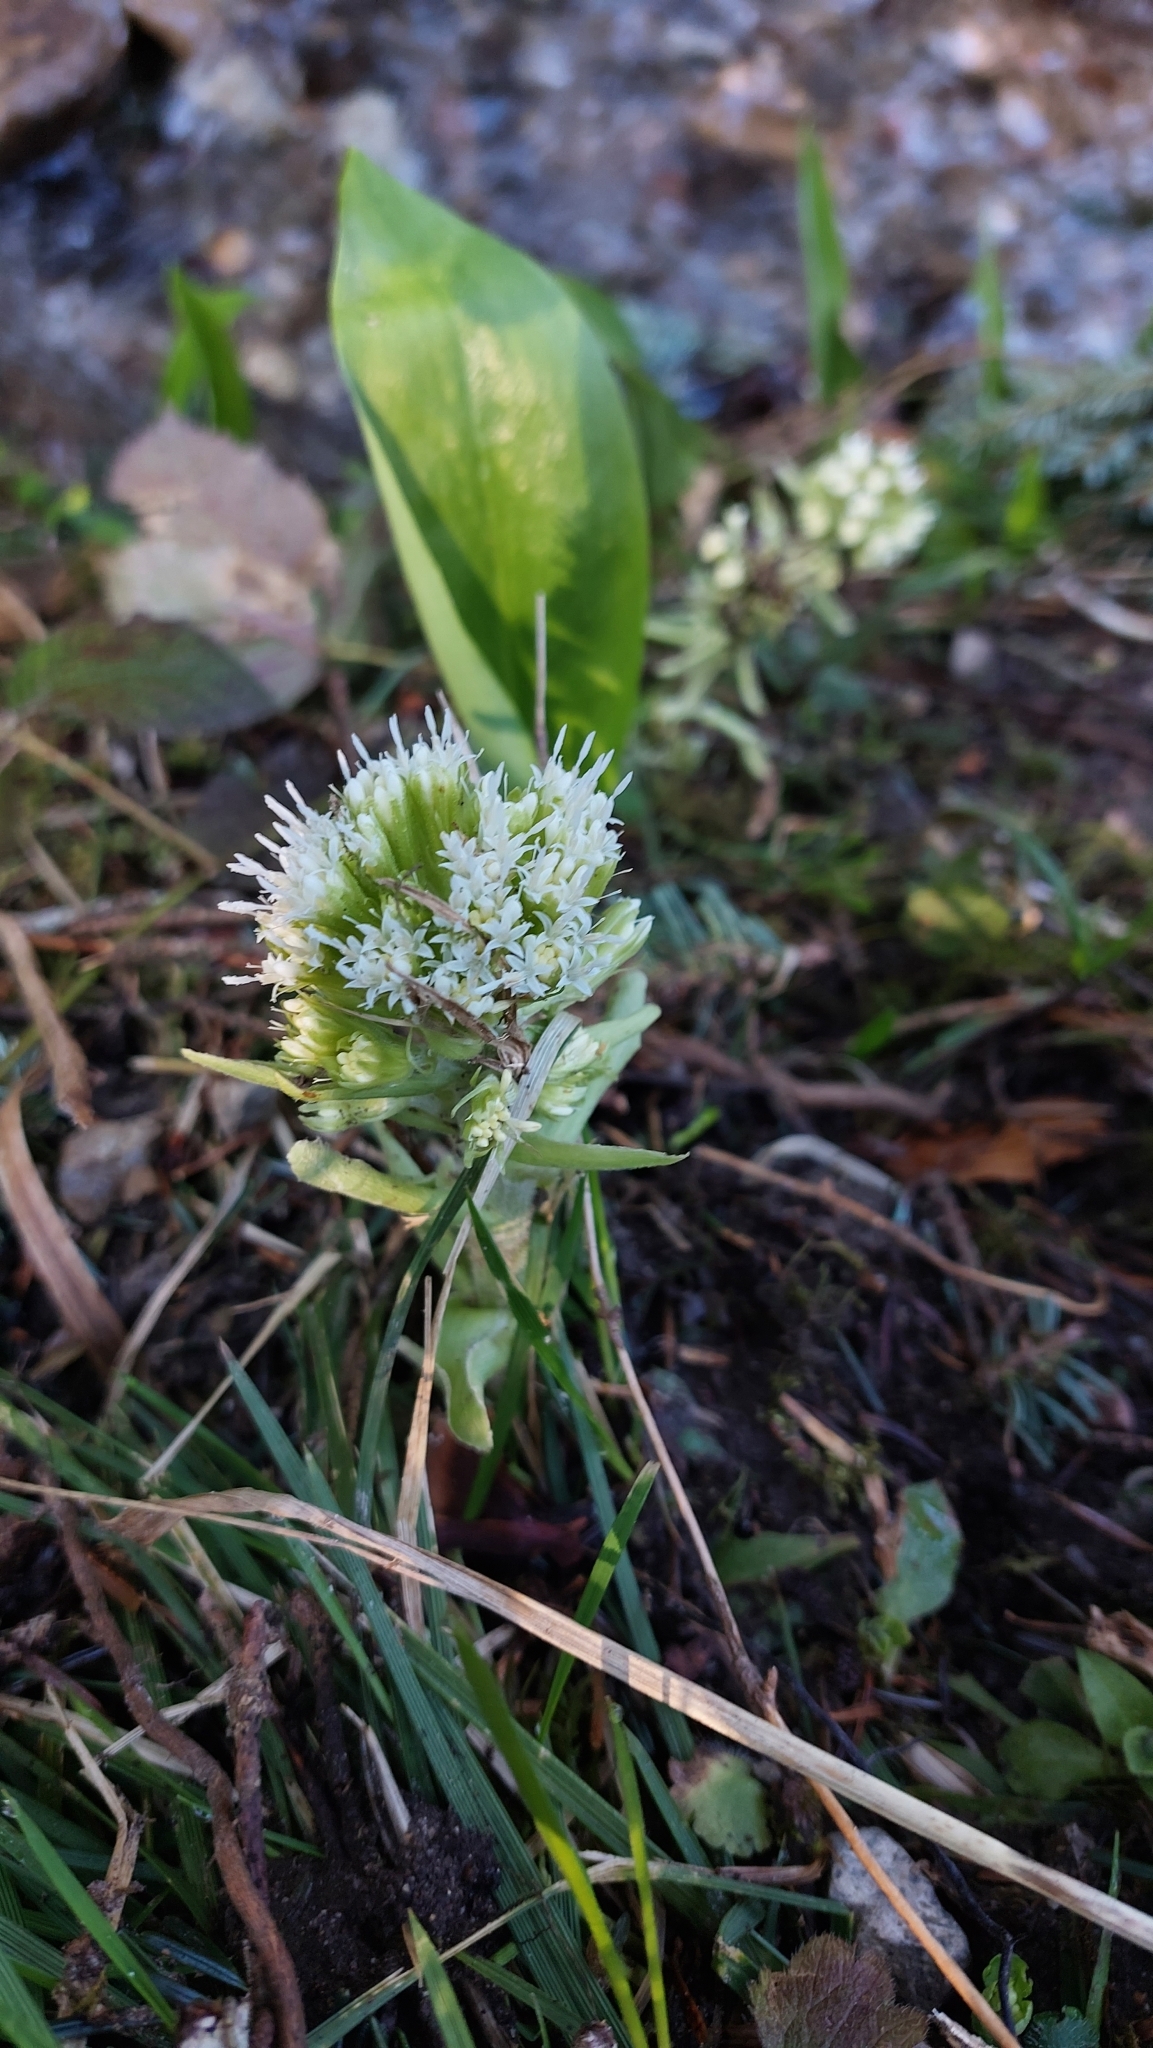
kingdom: Plantae
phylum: Tracheophyta
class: Magnoliopsida
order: Asterales
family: Asteraceae
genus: Petasites
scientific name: Petasites albus
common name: White butterbur
